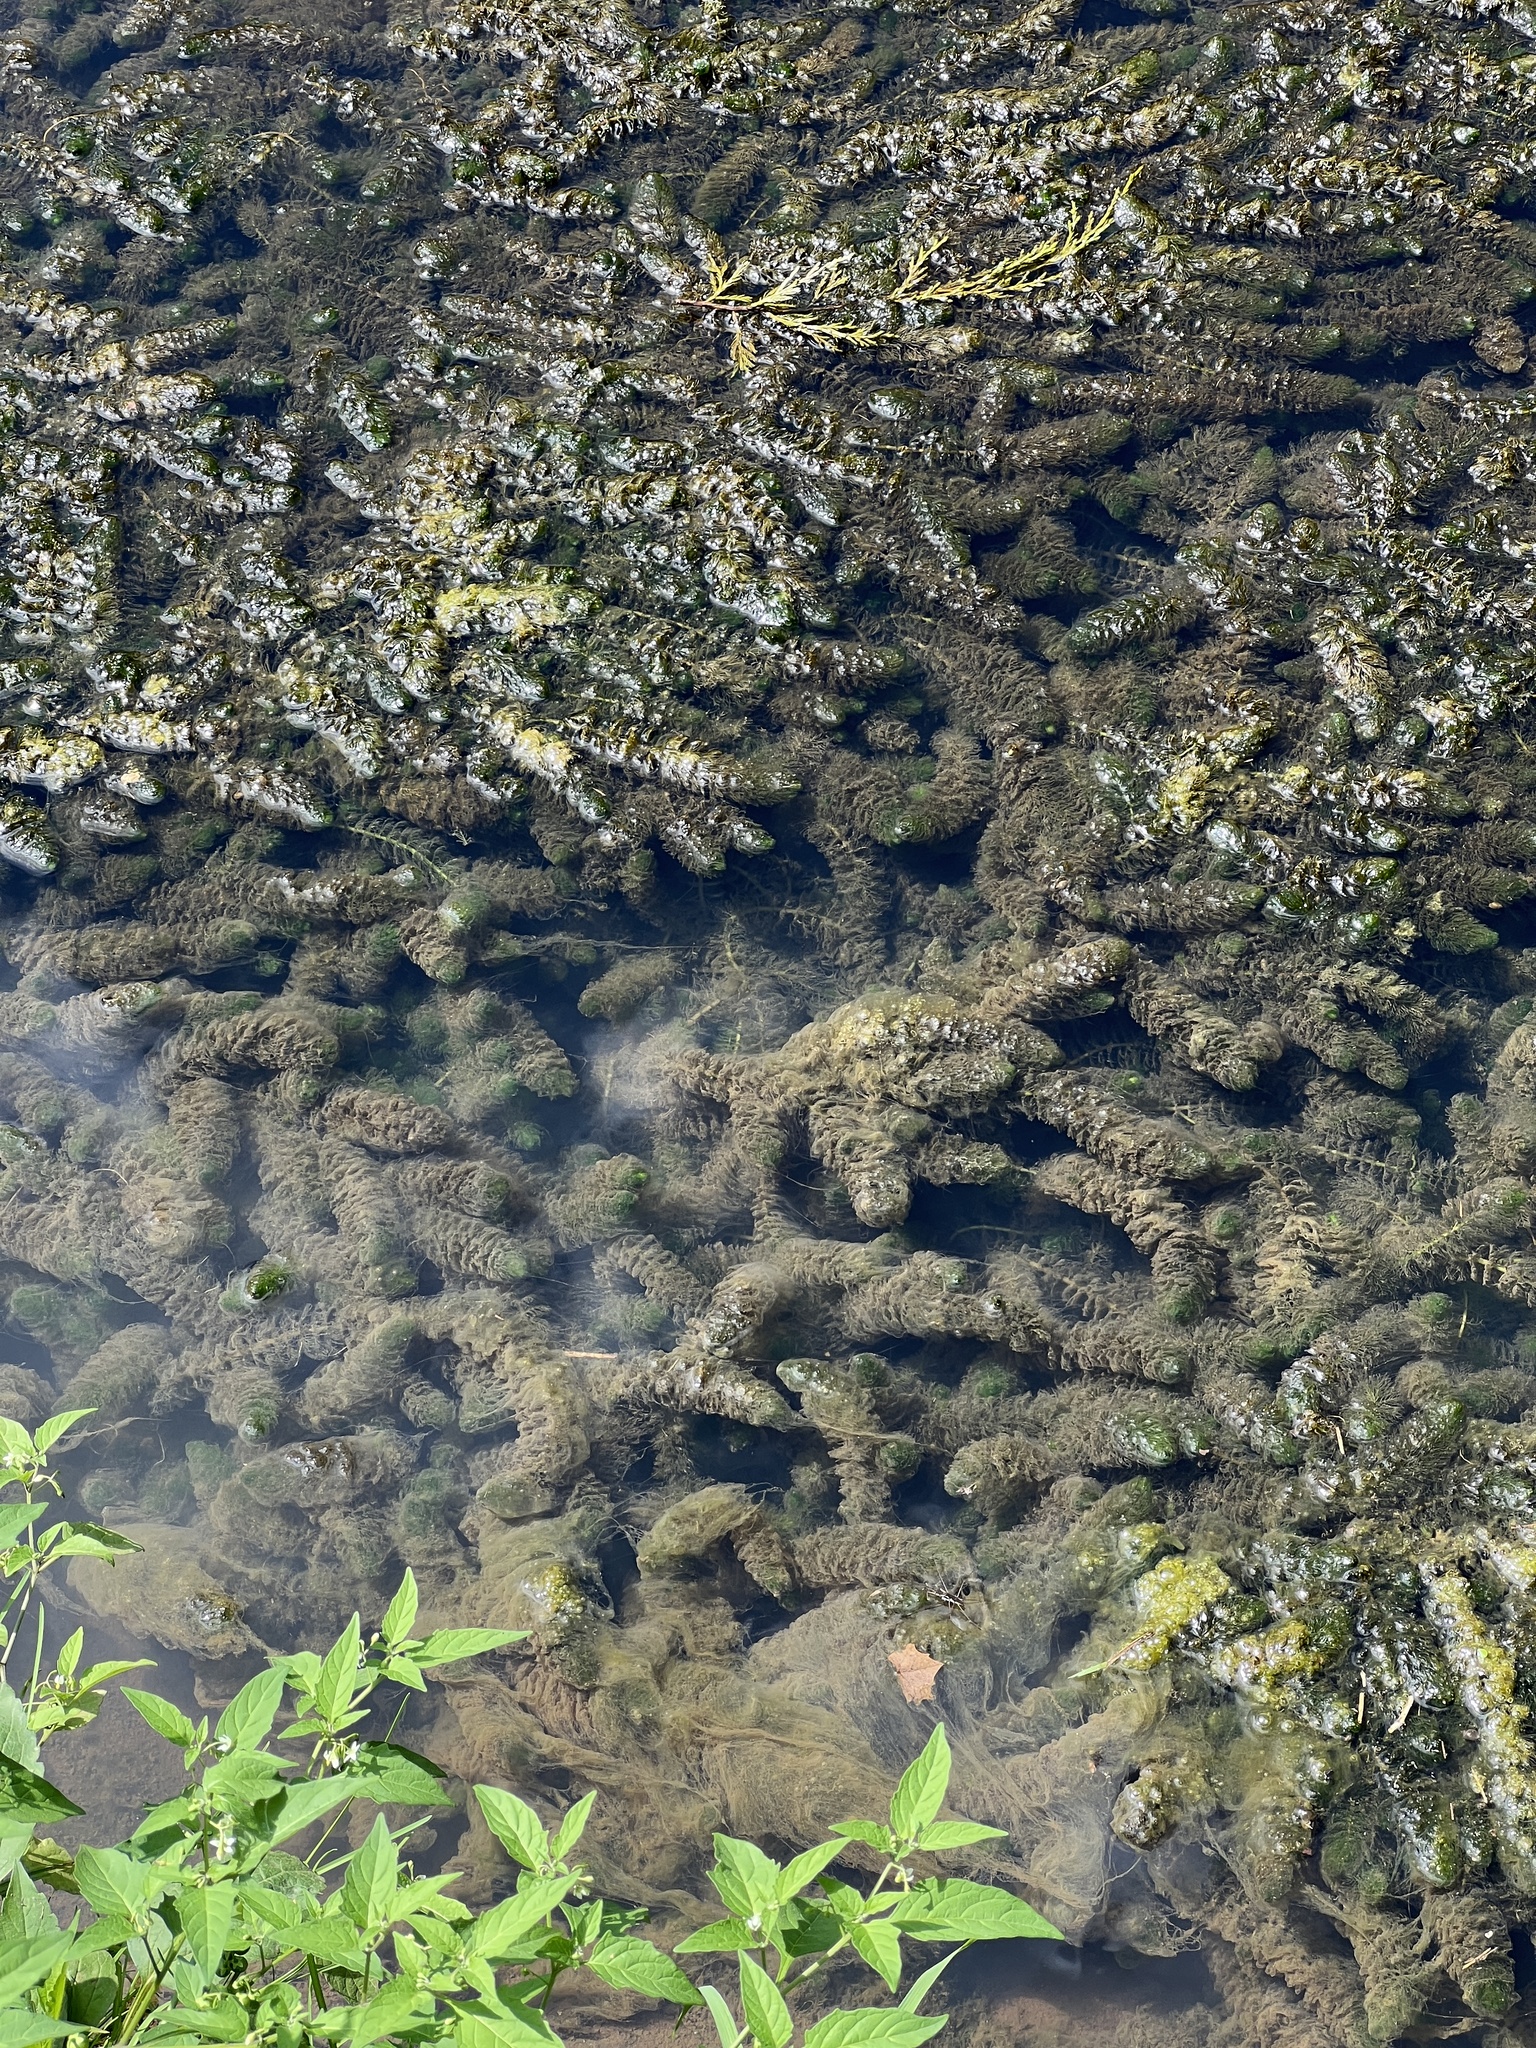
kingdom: Plantae
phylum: Tracheophyta
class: Magnoliopsida
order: Ceratophyllales
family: Ceratophyllaceae
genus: Ceratophyllum
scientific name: Ceratophyllum demersum
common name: Rigid hornwort
